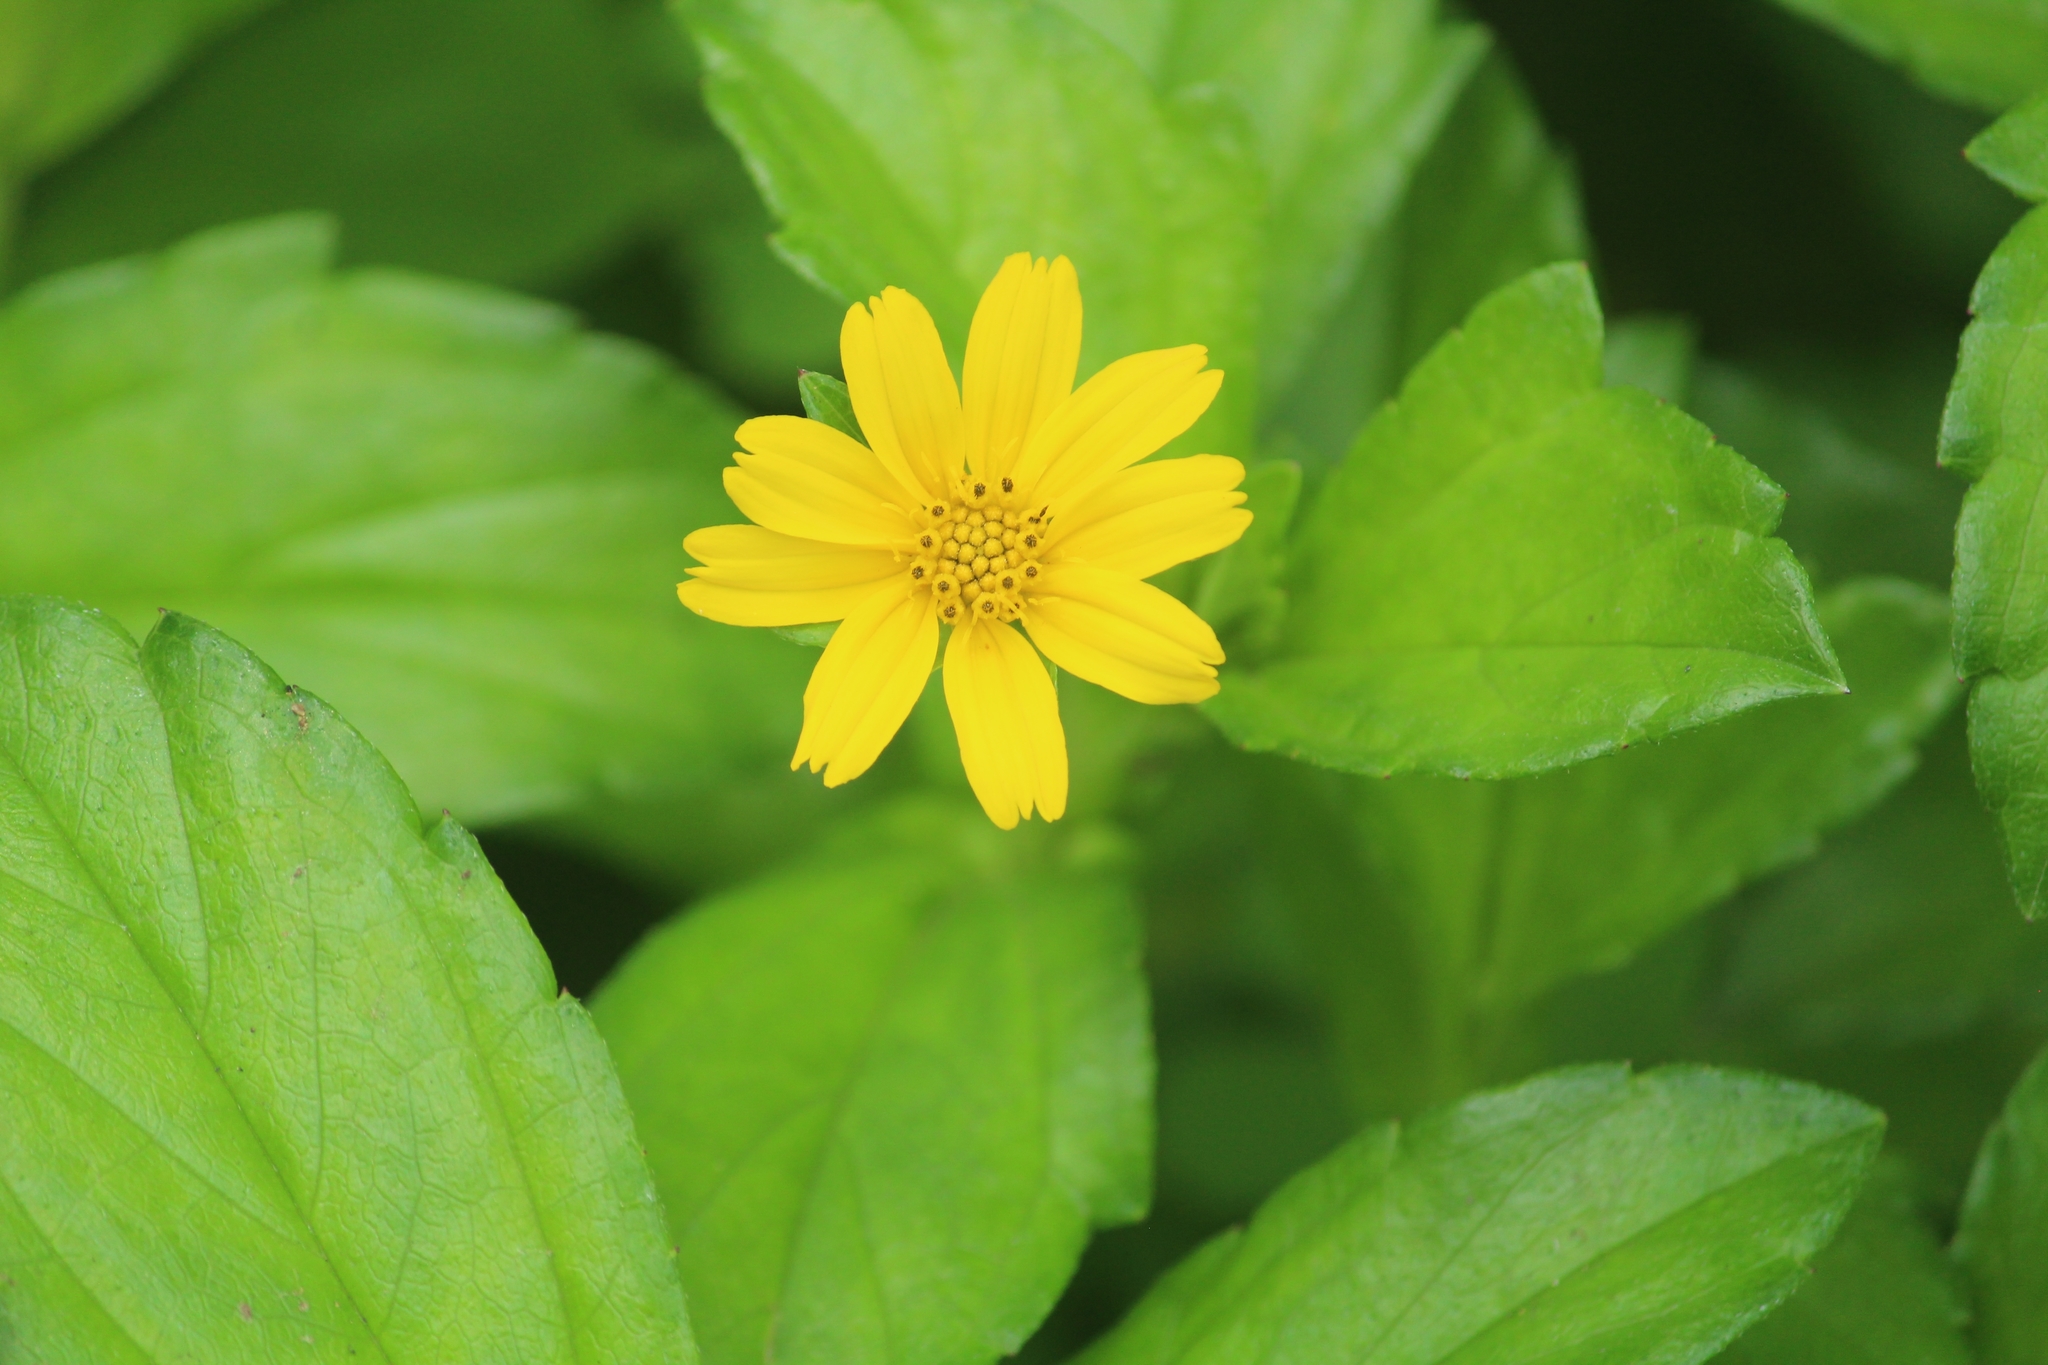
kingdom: Plantae
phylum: Tracheophyta
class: Magnoliopsida
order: Asterales
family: Asteraceae
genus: Sphagneticola
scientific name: Sphagneticola trilobata
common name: Bay biscayne creeping-oxeye
